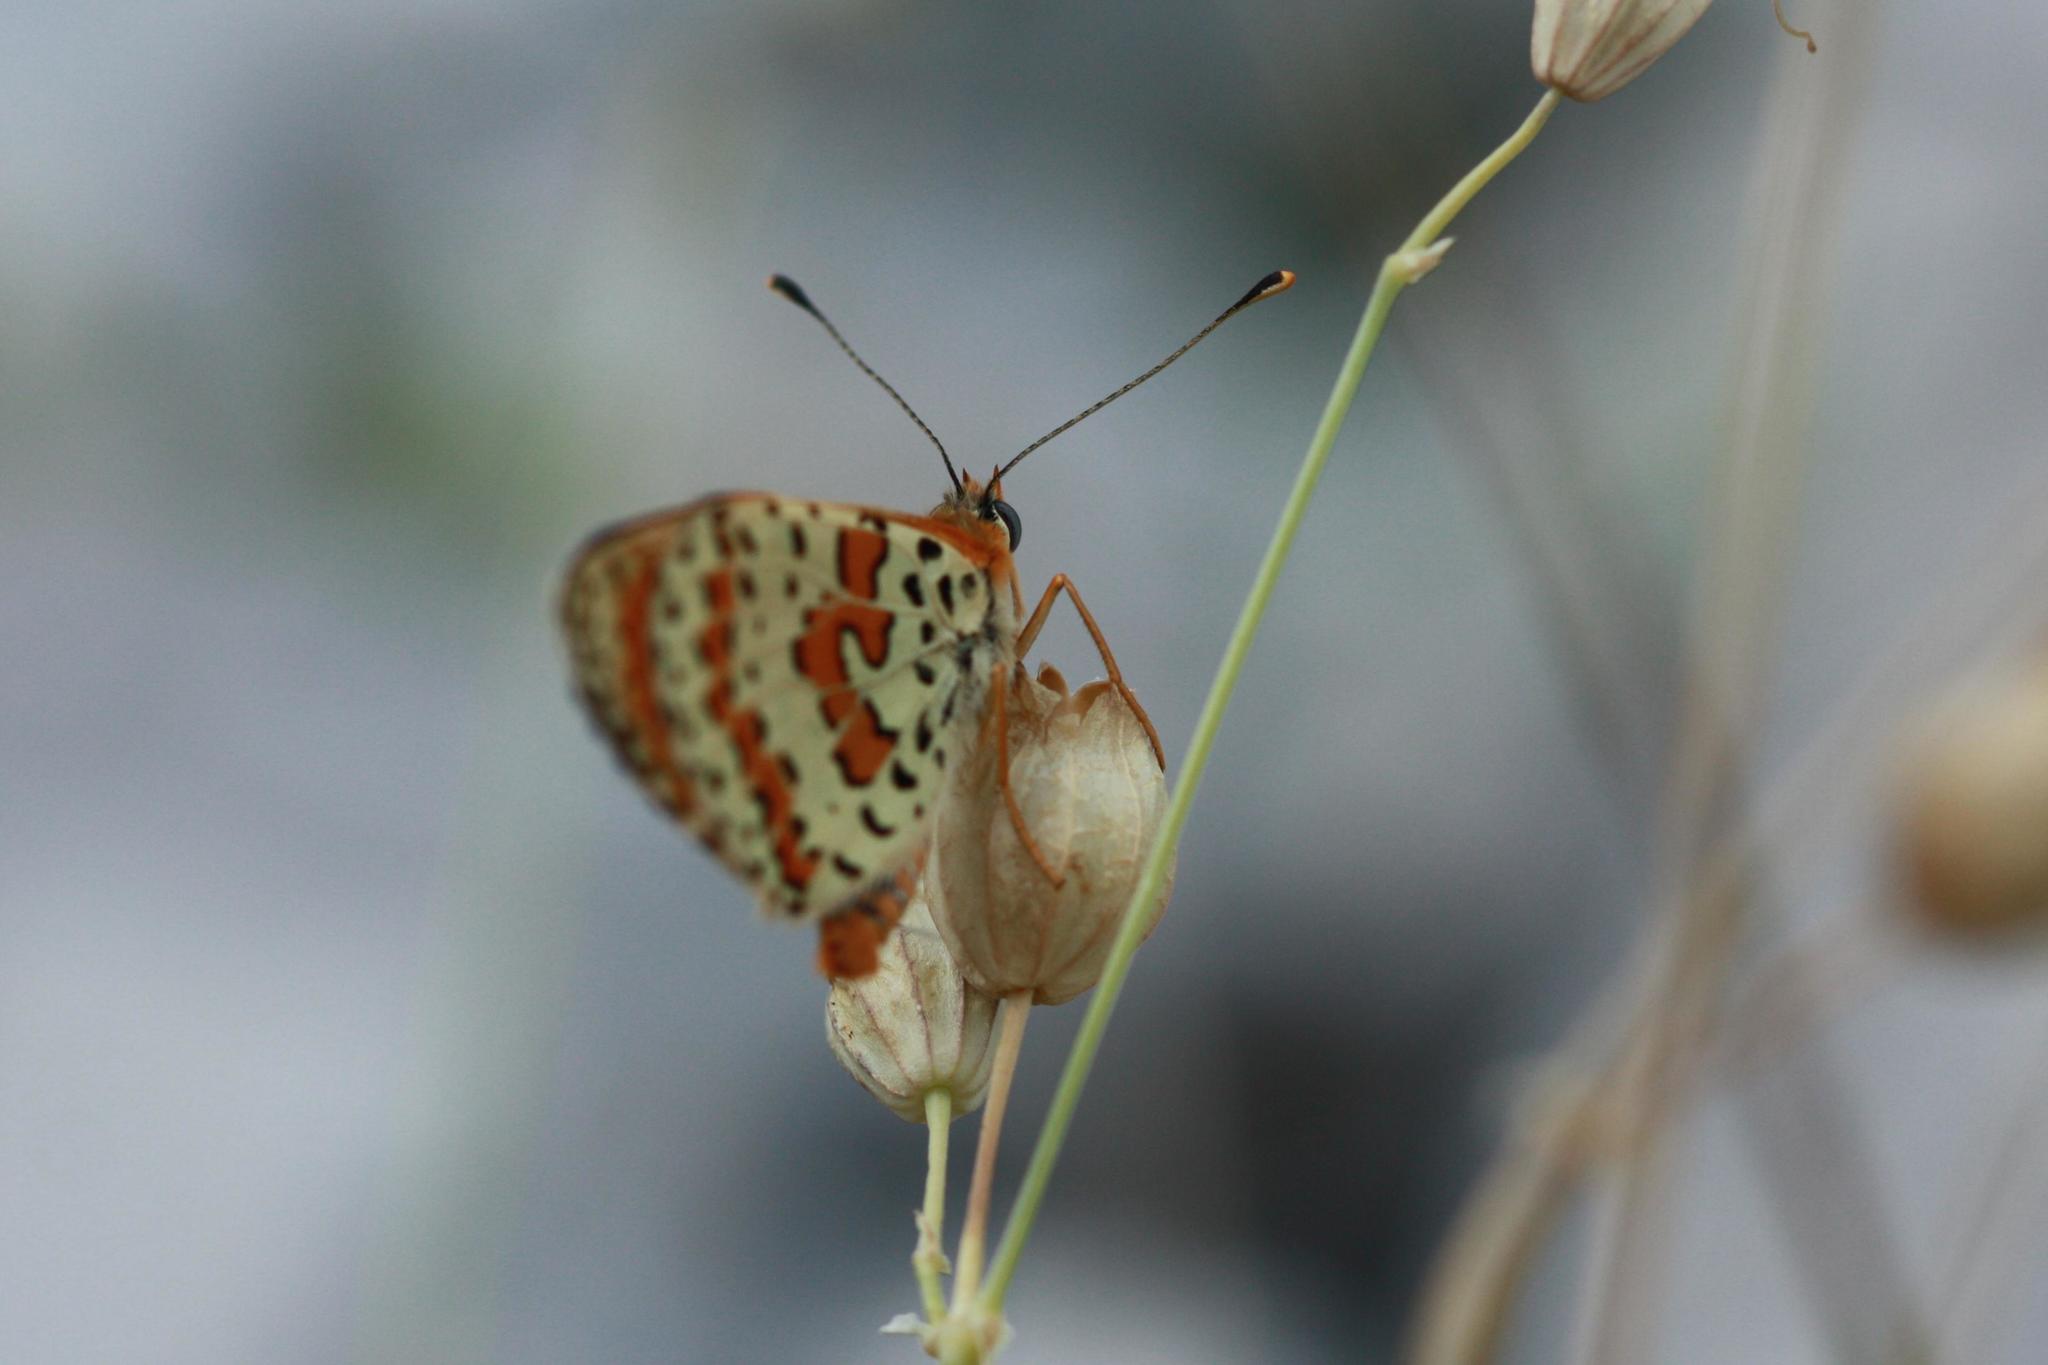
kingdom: Animalia
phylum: Arthropoda
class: Insecta
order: Lepidoptera
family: Nymphalidae
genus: Melitaea
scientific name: Melitaea didyma
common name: Spotted fritillary
